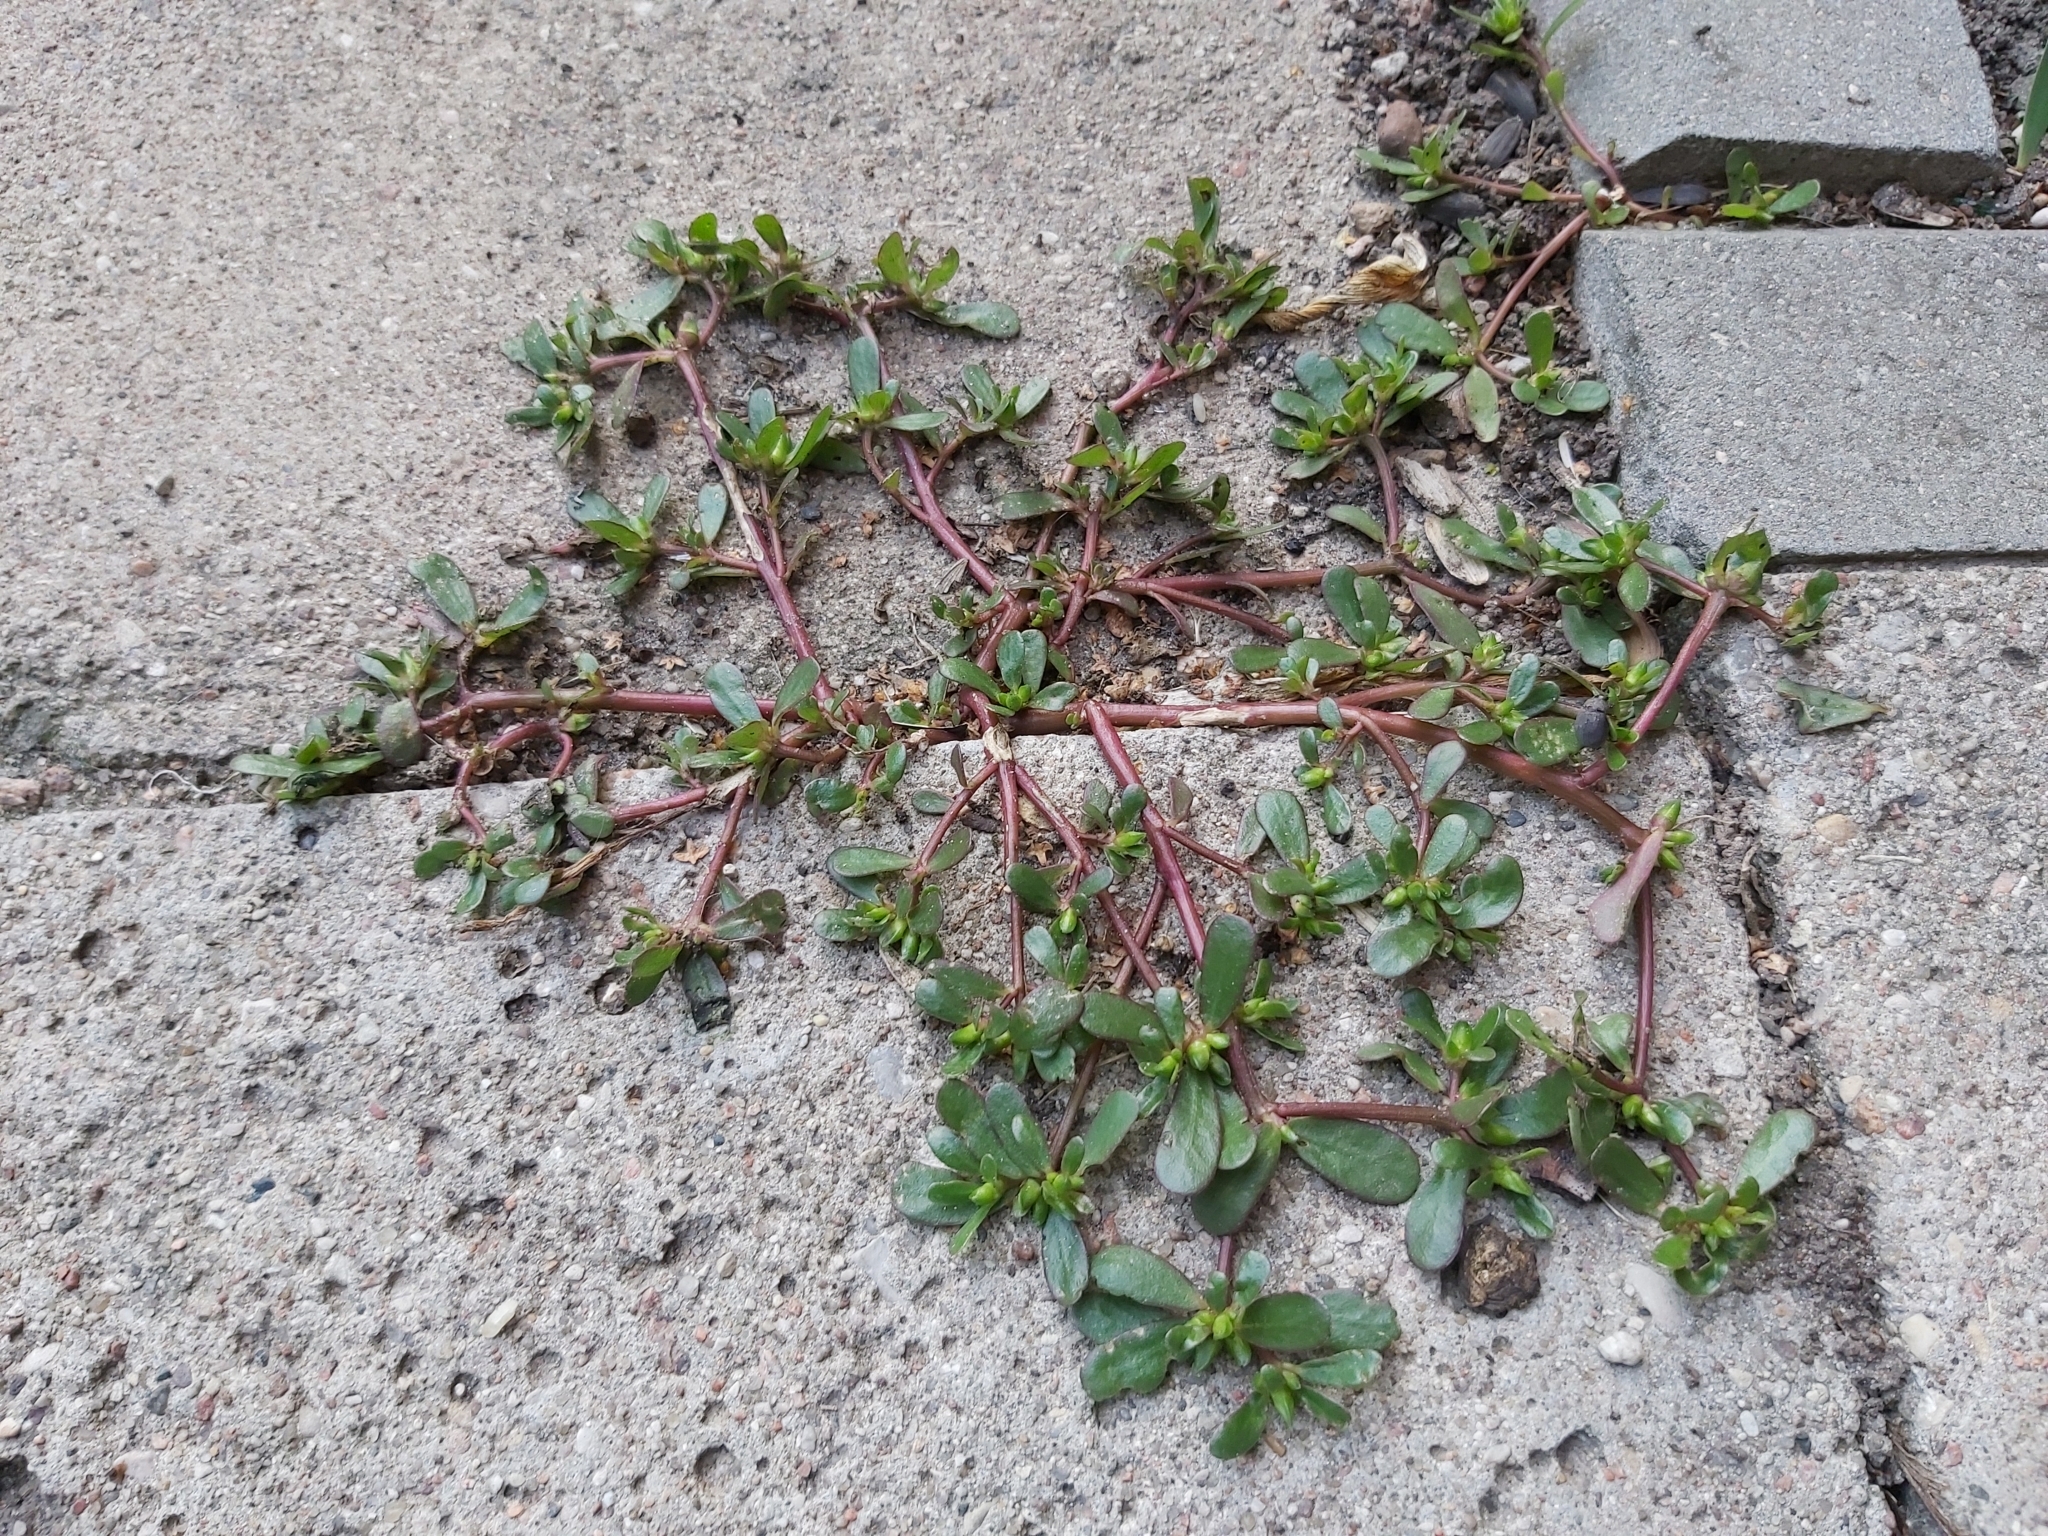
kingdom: Plantae
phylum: Tracheophyta
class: Magnoliopsida
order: Caryophyllales
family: Portulacaceae
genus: Portulaca
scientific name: Portulaca oleracea
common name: Common purslane
